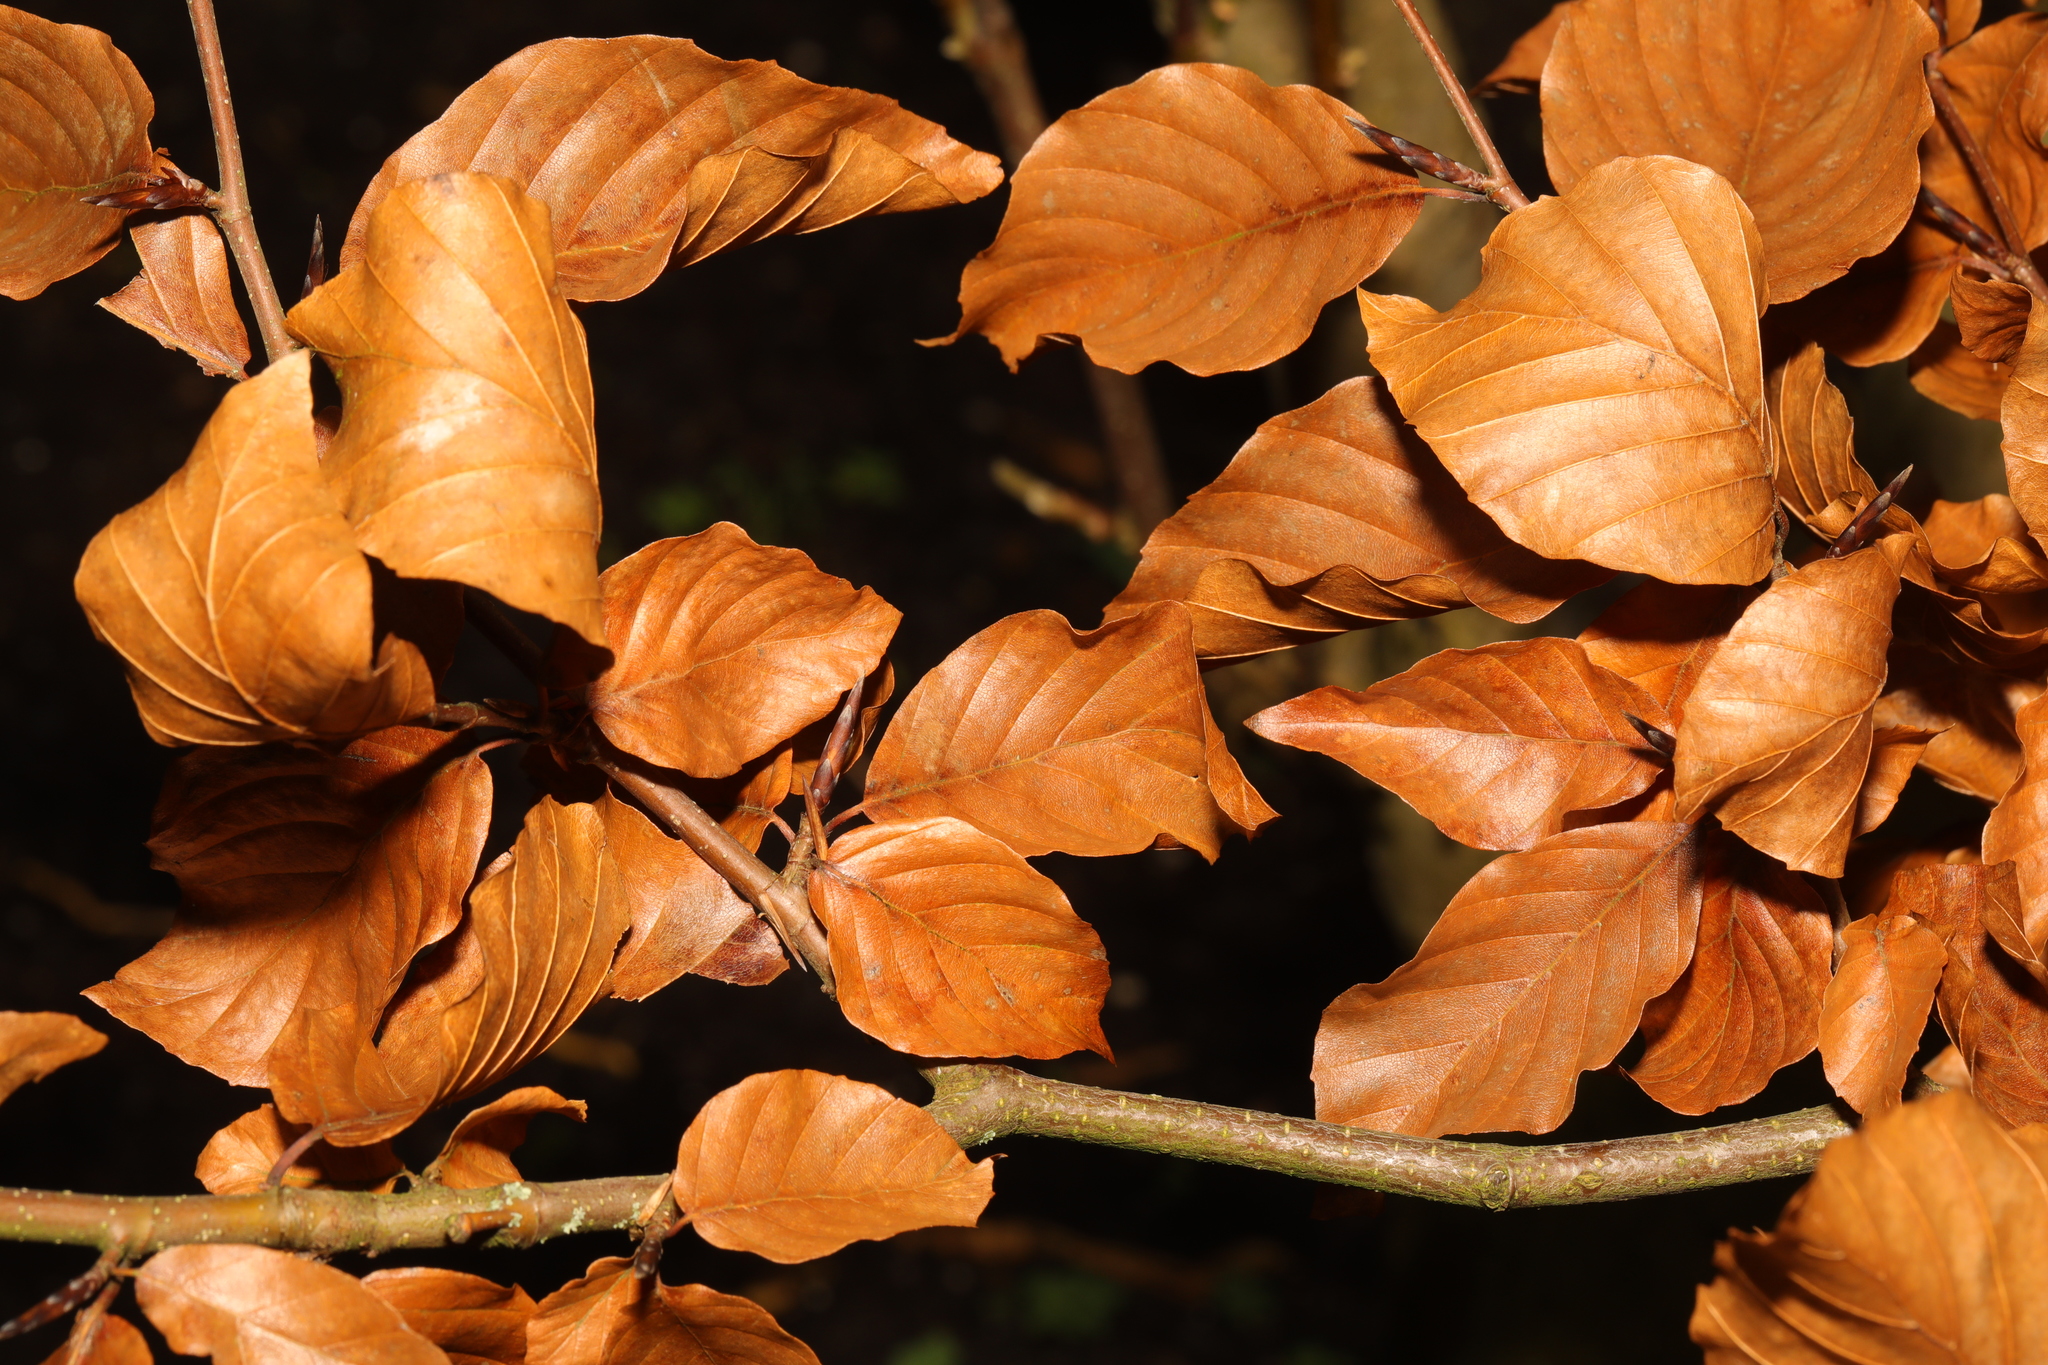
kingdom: Plantae
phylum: Tracheophyta
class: Magnoliopsida
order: Fagales
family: Fagaceae
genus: Fagus
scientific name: Fagus sylvatica
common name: Beech
